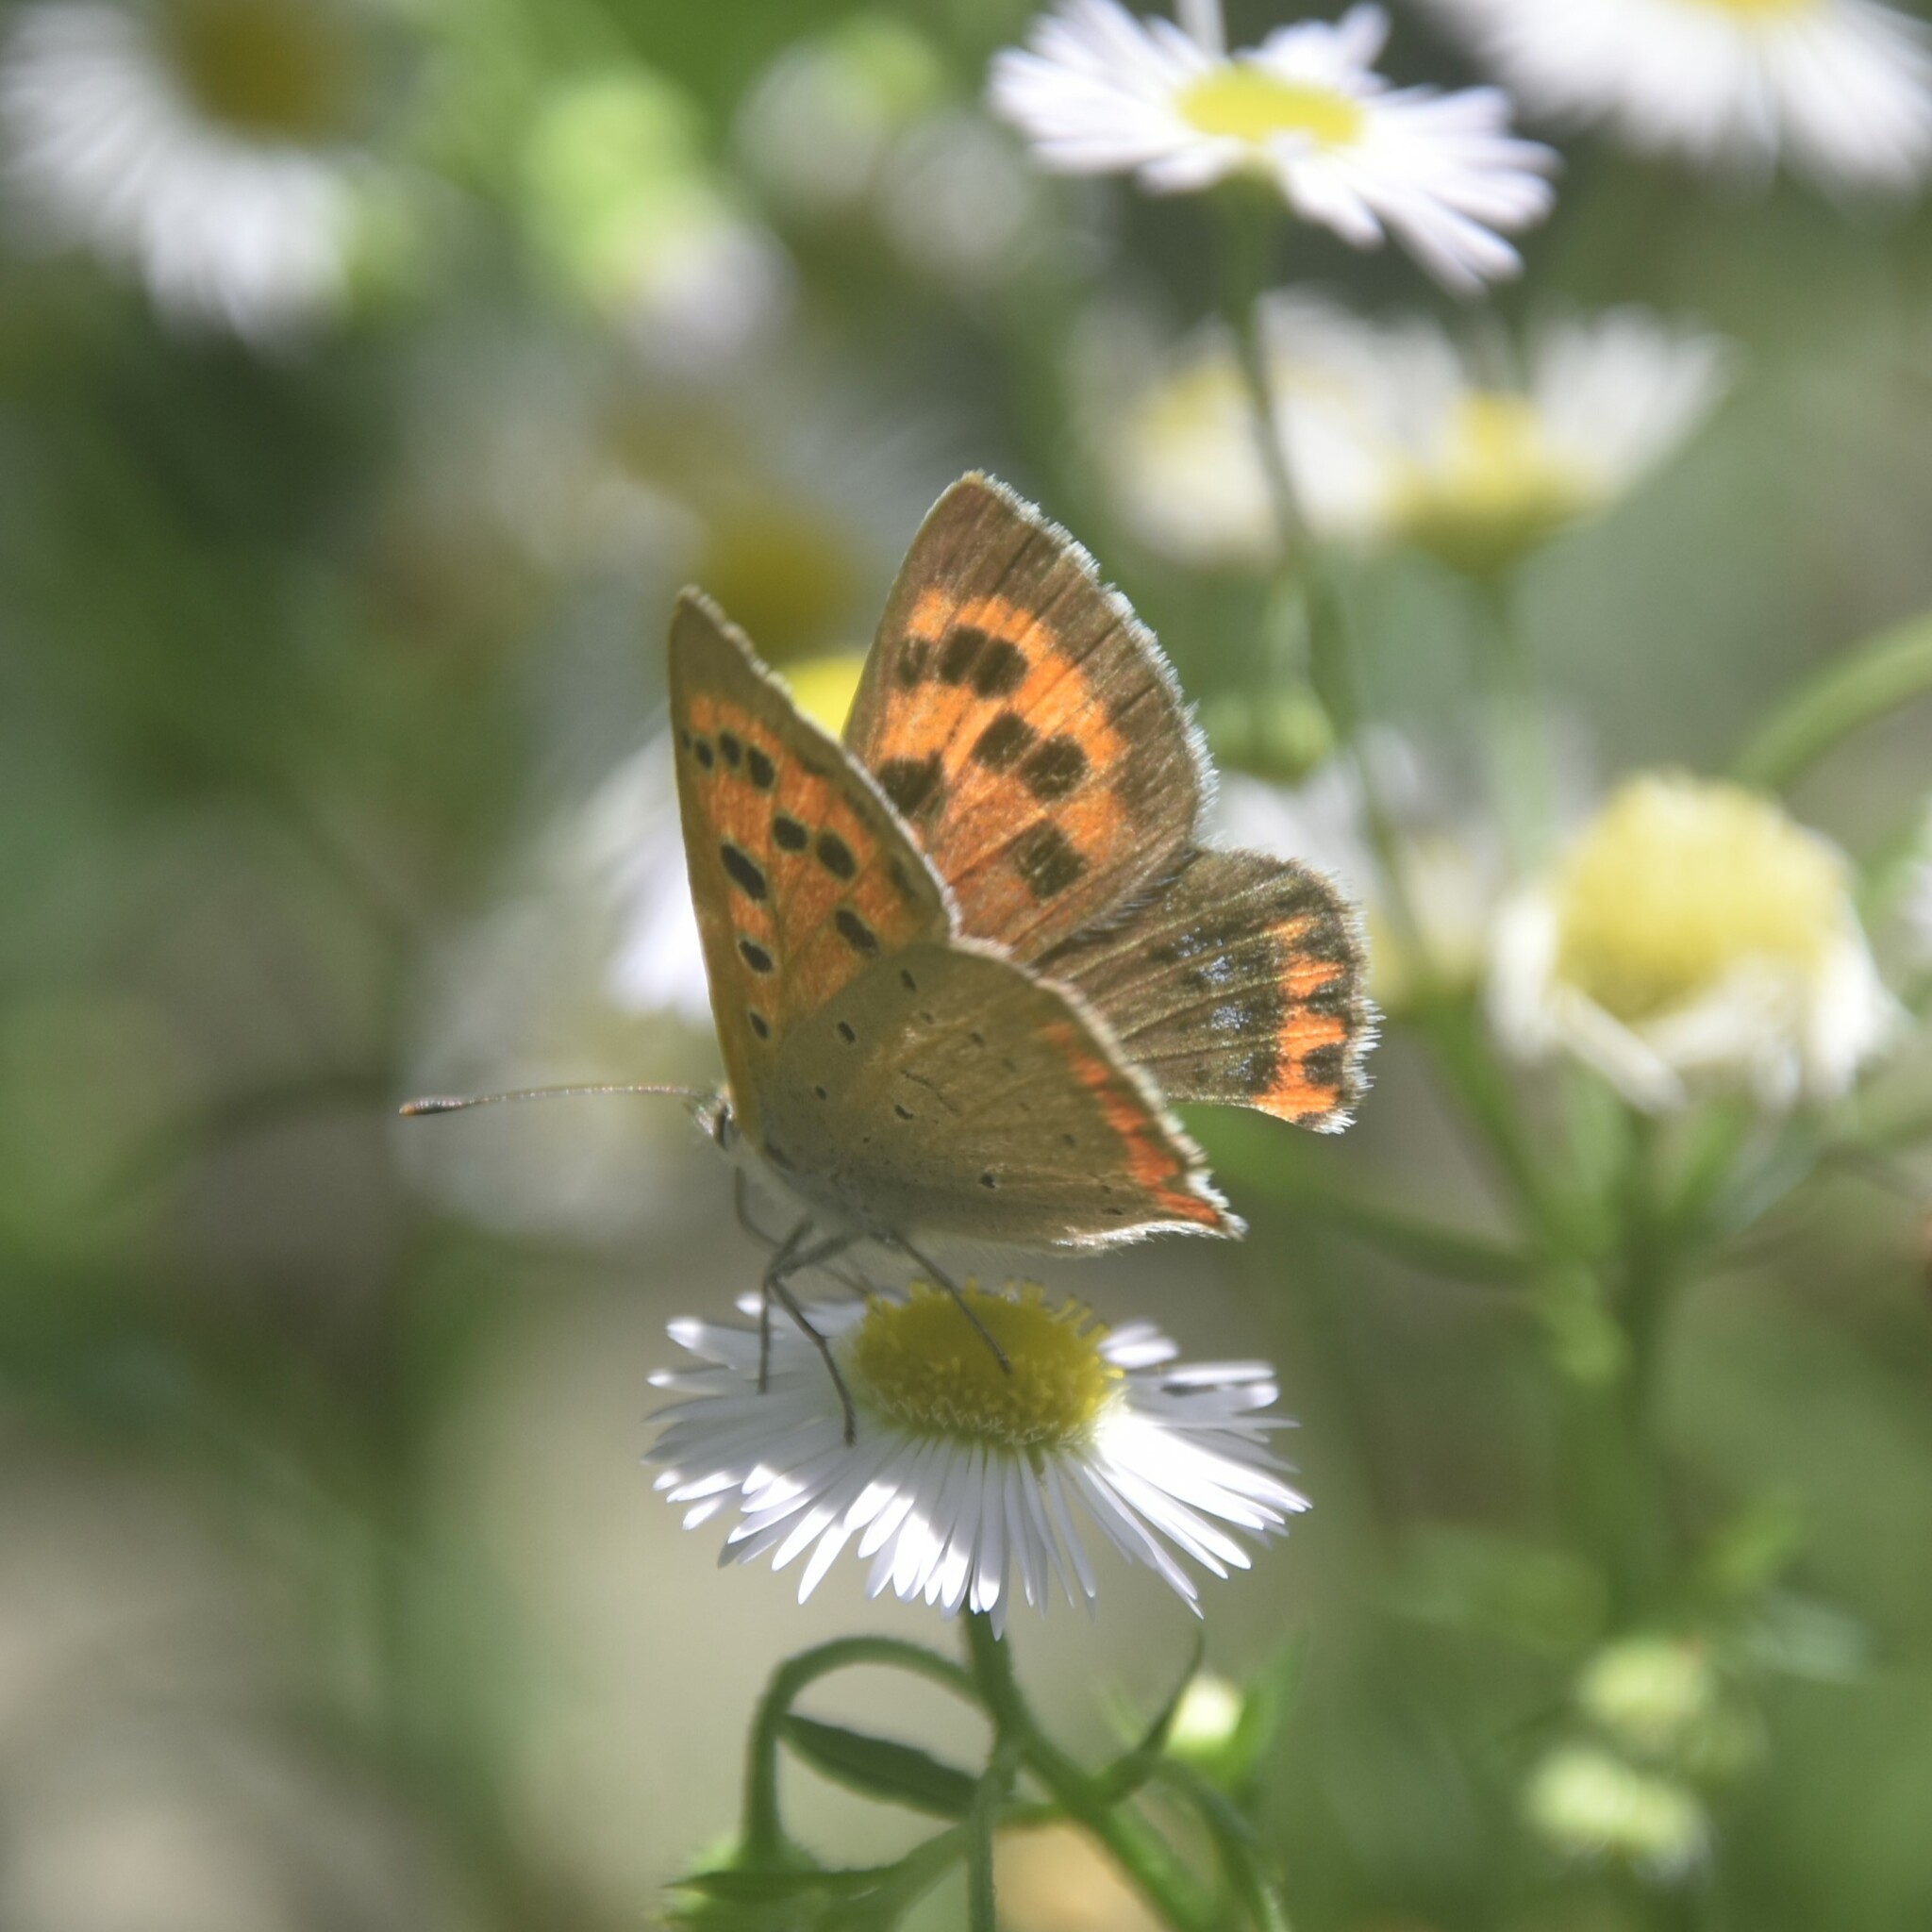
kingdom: Animalia
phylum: Arthropoda
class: Insecta
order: Lepidoptera
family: Lycaenidae
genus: Lycaena
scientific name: Lycaena phlaeas
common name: Small copper
